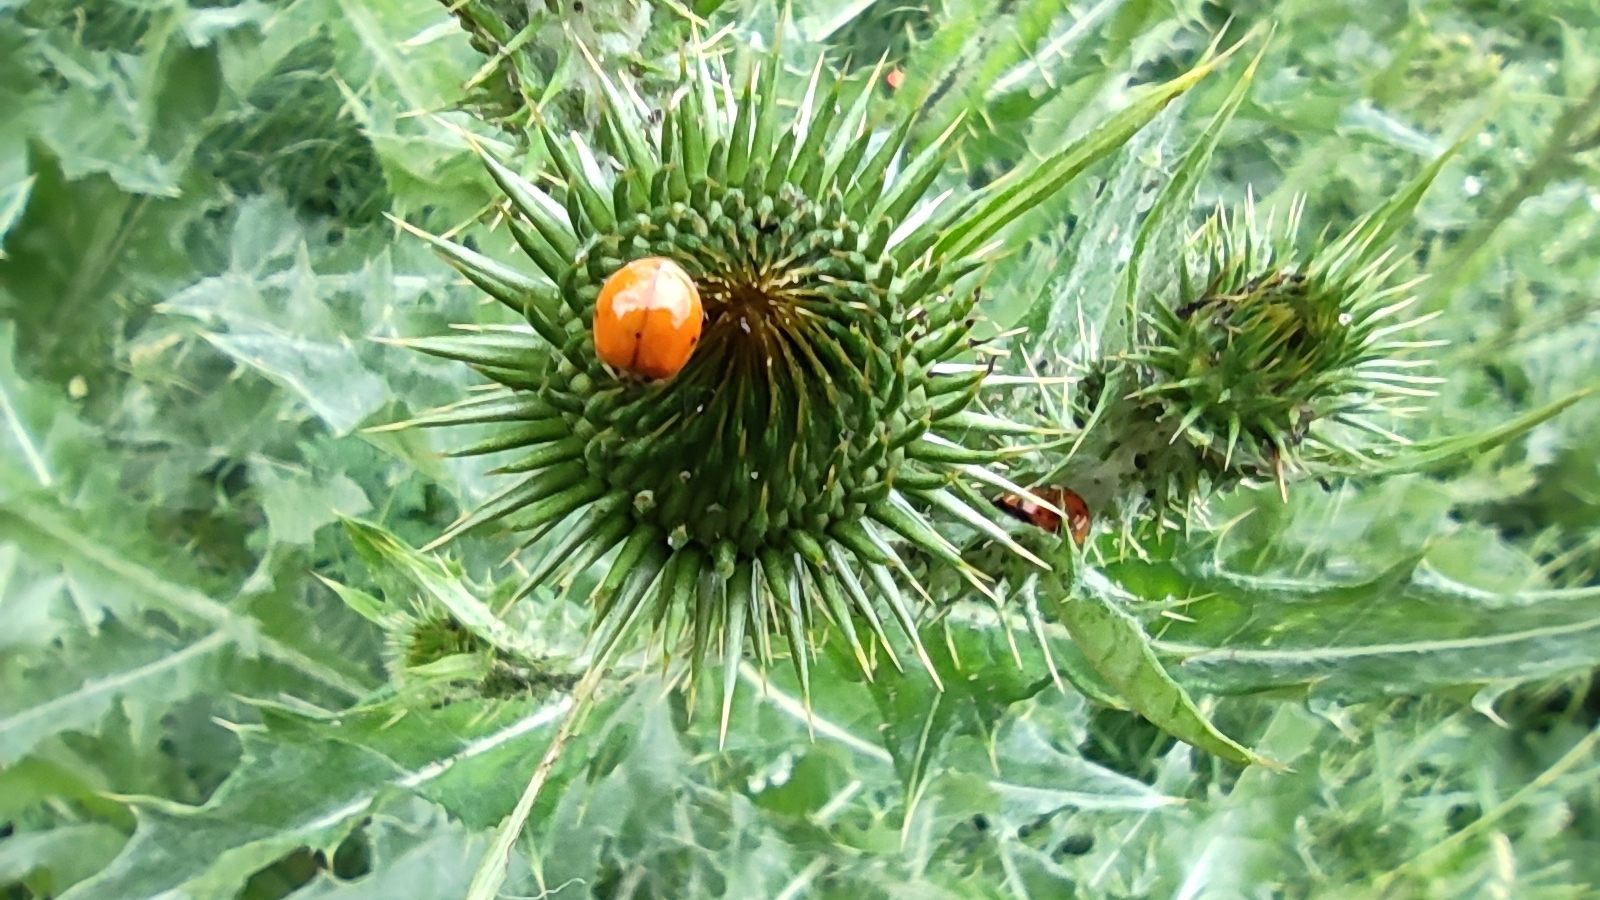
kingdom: Animalia
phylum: Arthropoda
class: Insecta
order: Coleoptera
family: Coccinellidae
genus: Harmonia
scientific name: Harmonia axyridis
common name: Harlequin ladybird
